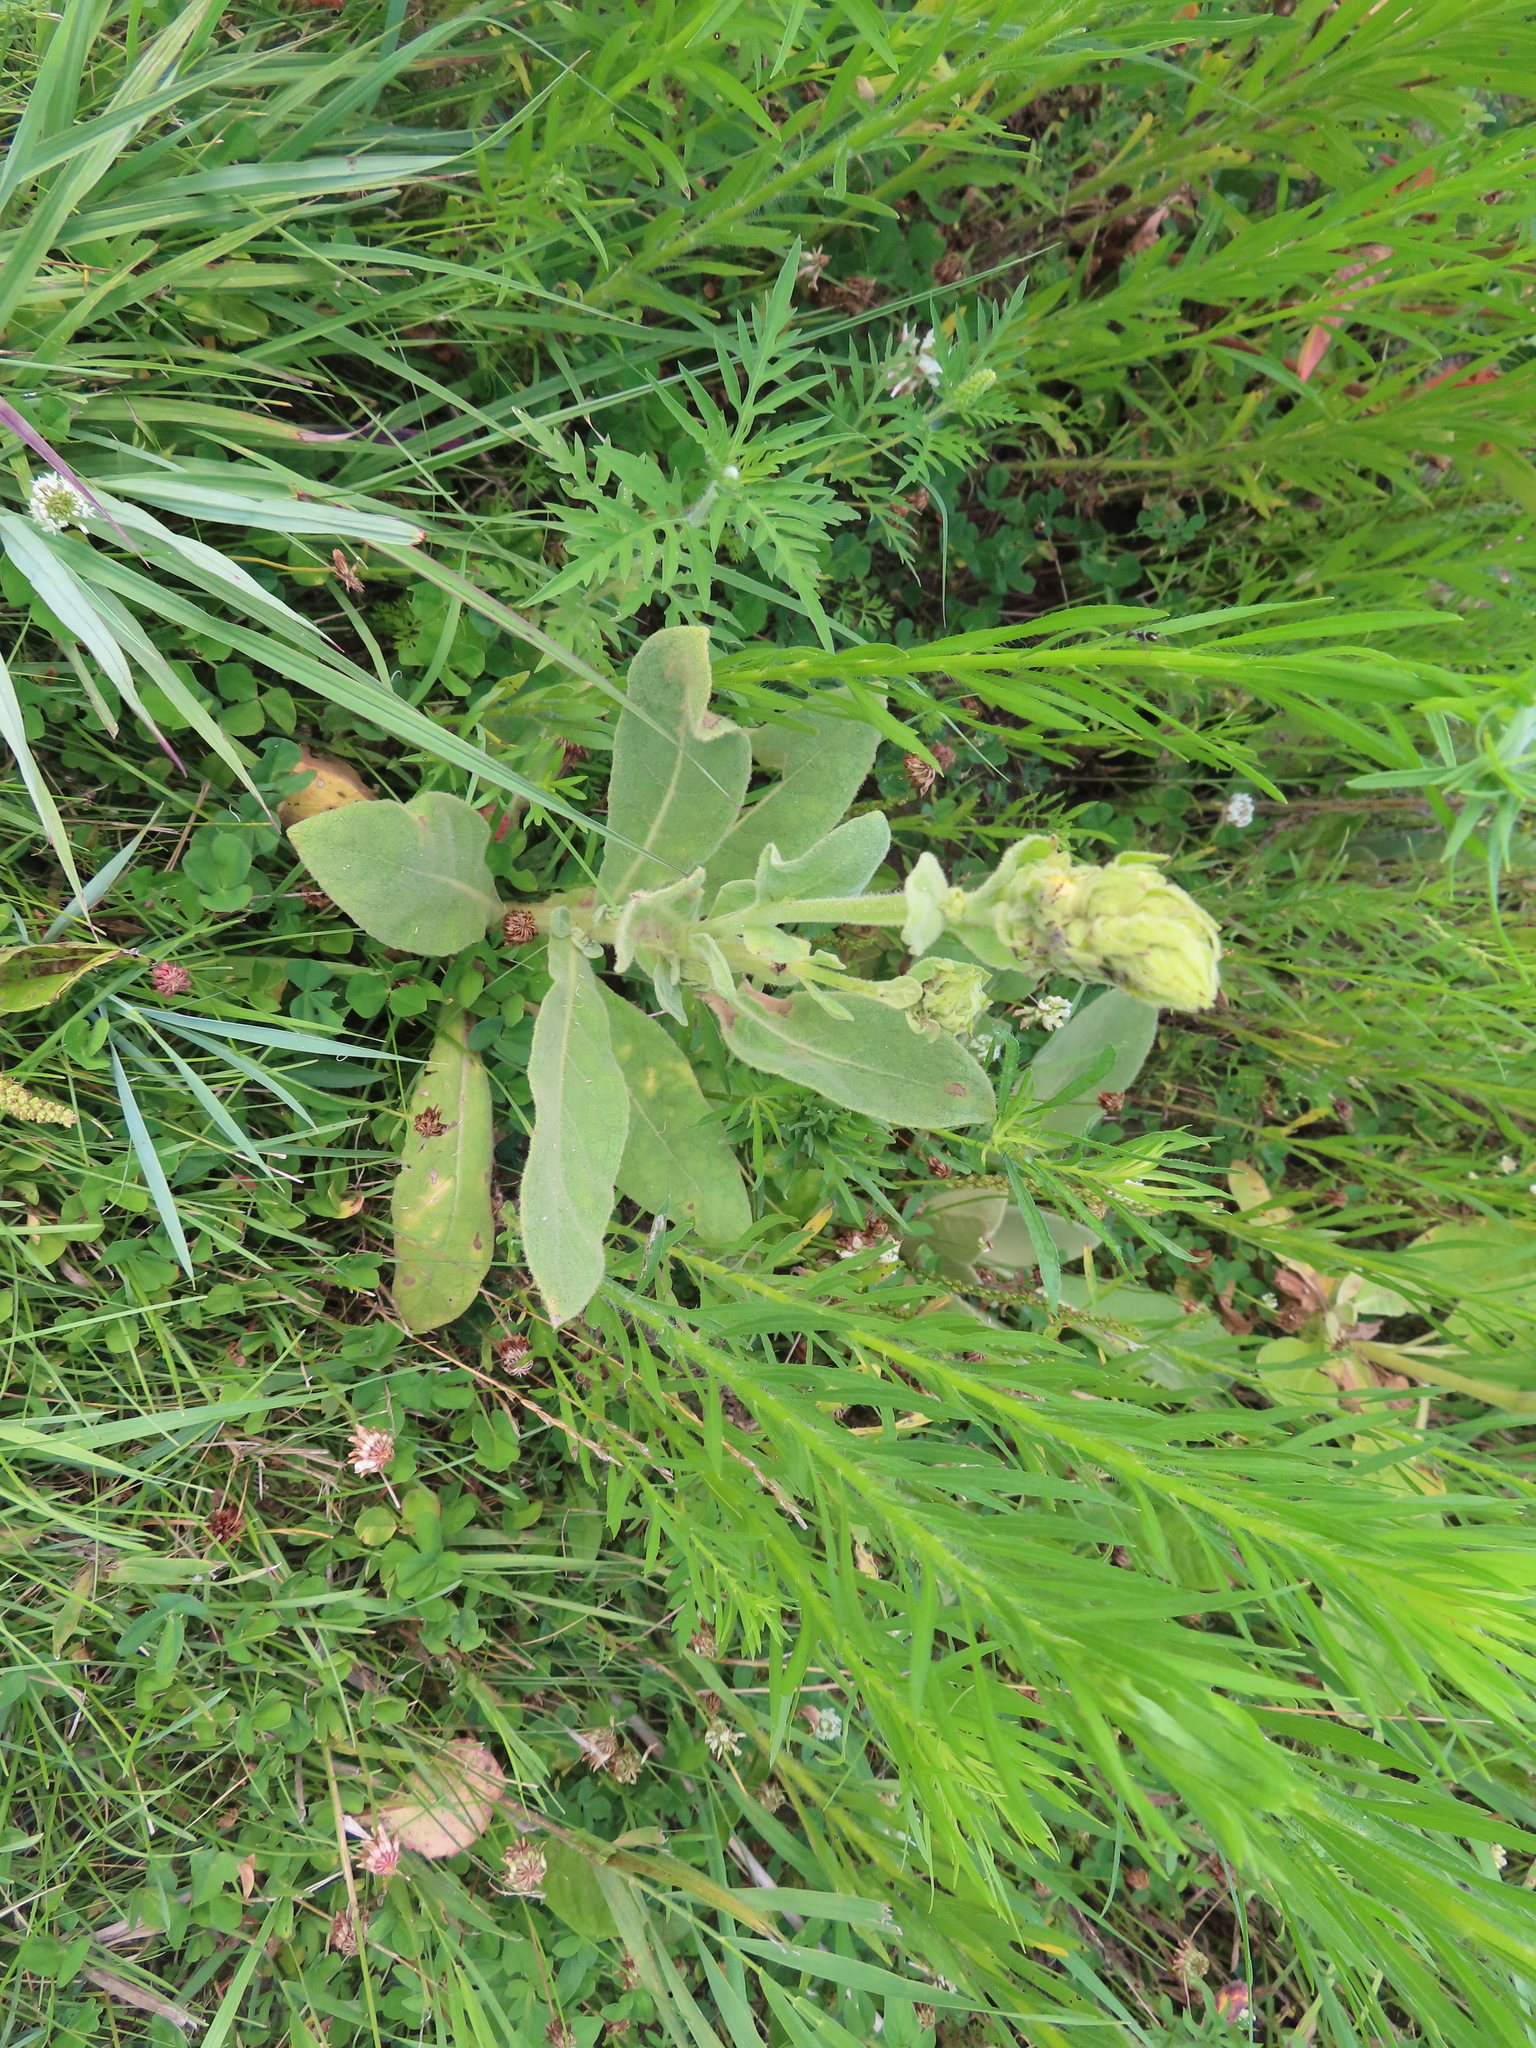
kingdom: Plantae
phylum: Tracheophyta
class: Magnoliopsida
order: Lamiales
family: Scrophulariaceae
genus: Verbascum
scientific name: Verbascum thapsus
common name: Common mullein
